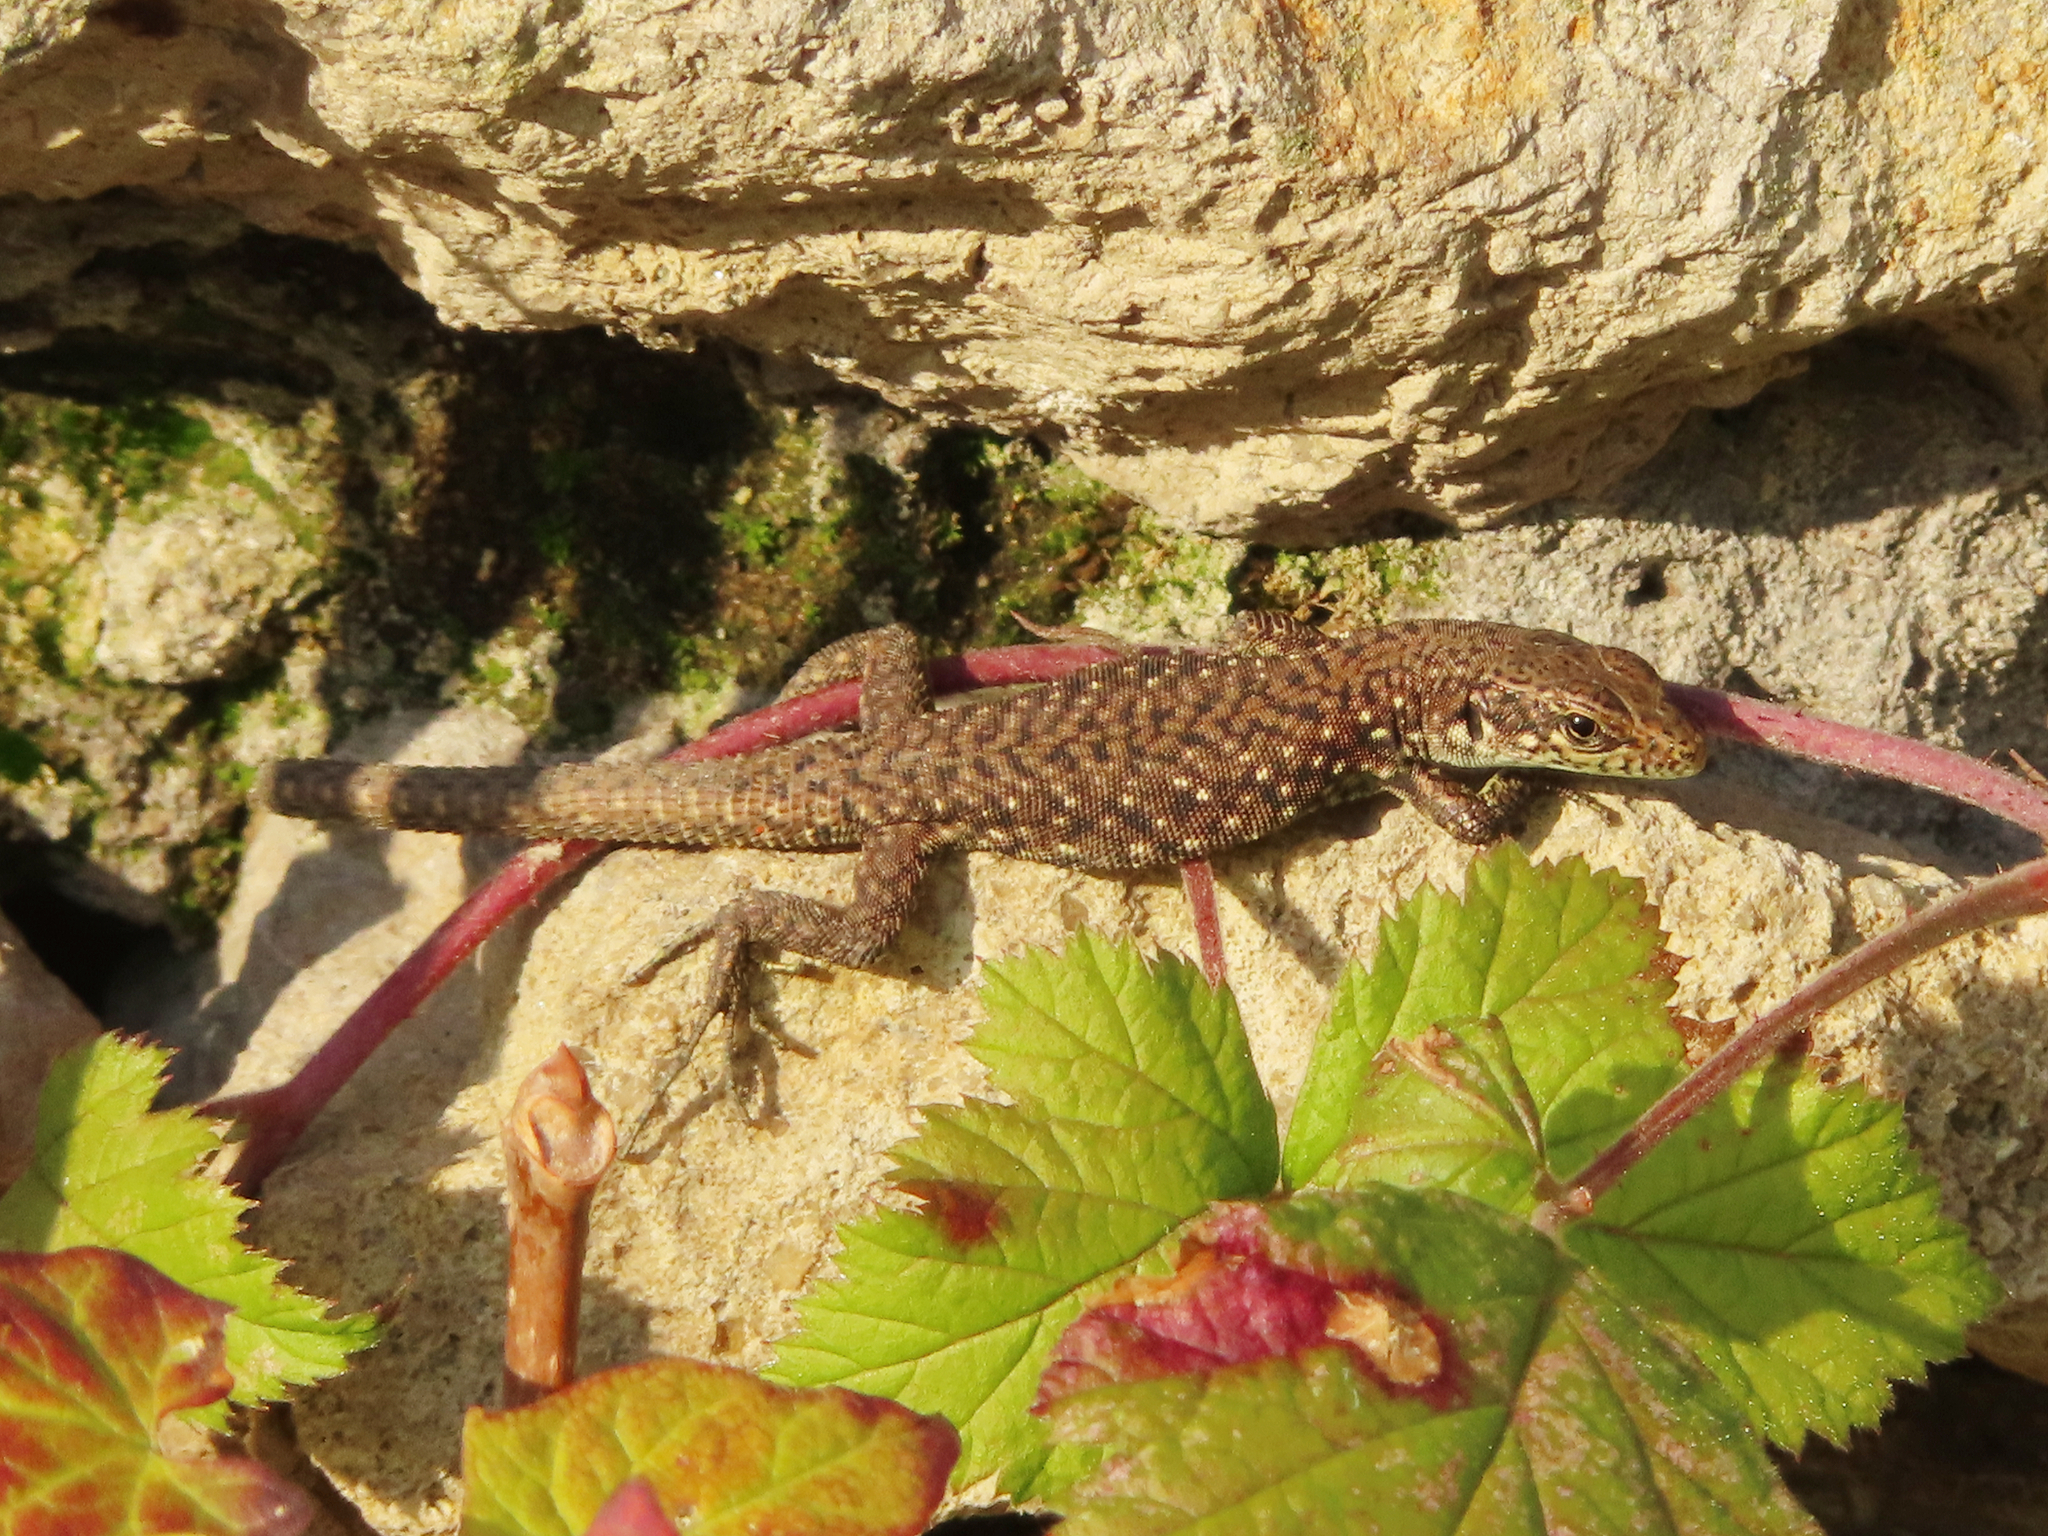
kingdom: Animalia
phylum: Chordata
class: Squamata
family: Lacertidae
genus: Darevskia
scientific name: Darevskia rudis
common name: Spiny-tailed lizard
